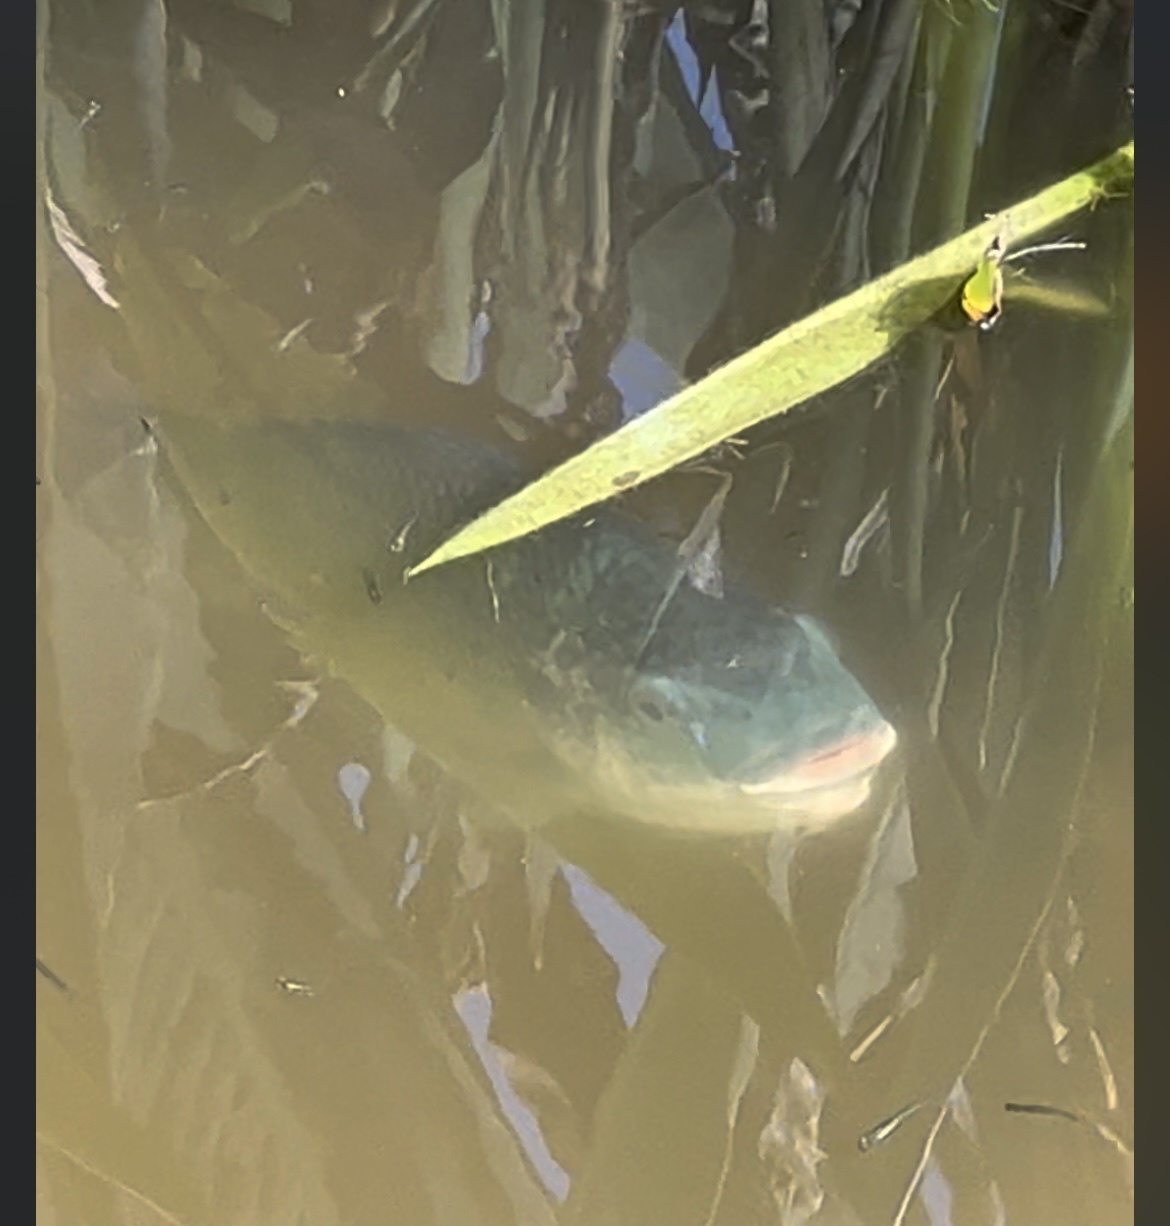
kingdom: Animalia
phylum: Chordata
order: Perciformes
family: Cichlidae
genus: Oreochromis
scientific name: Oreochromis aureus
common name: Blue tilapia
